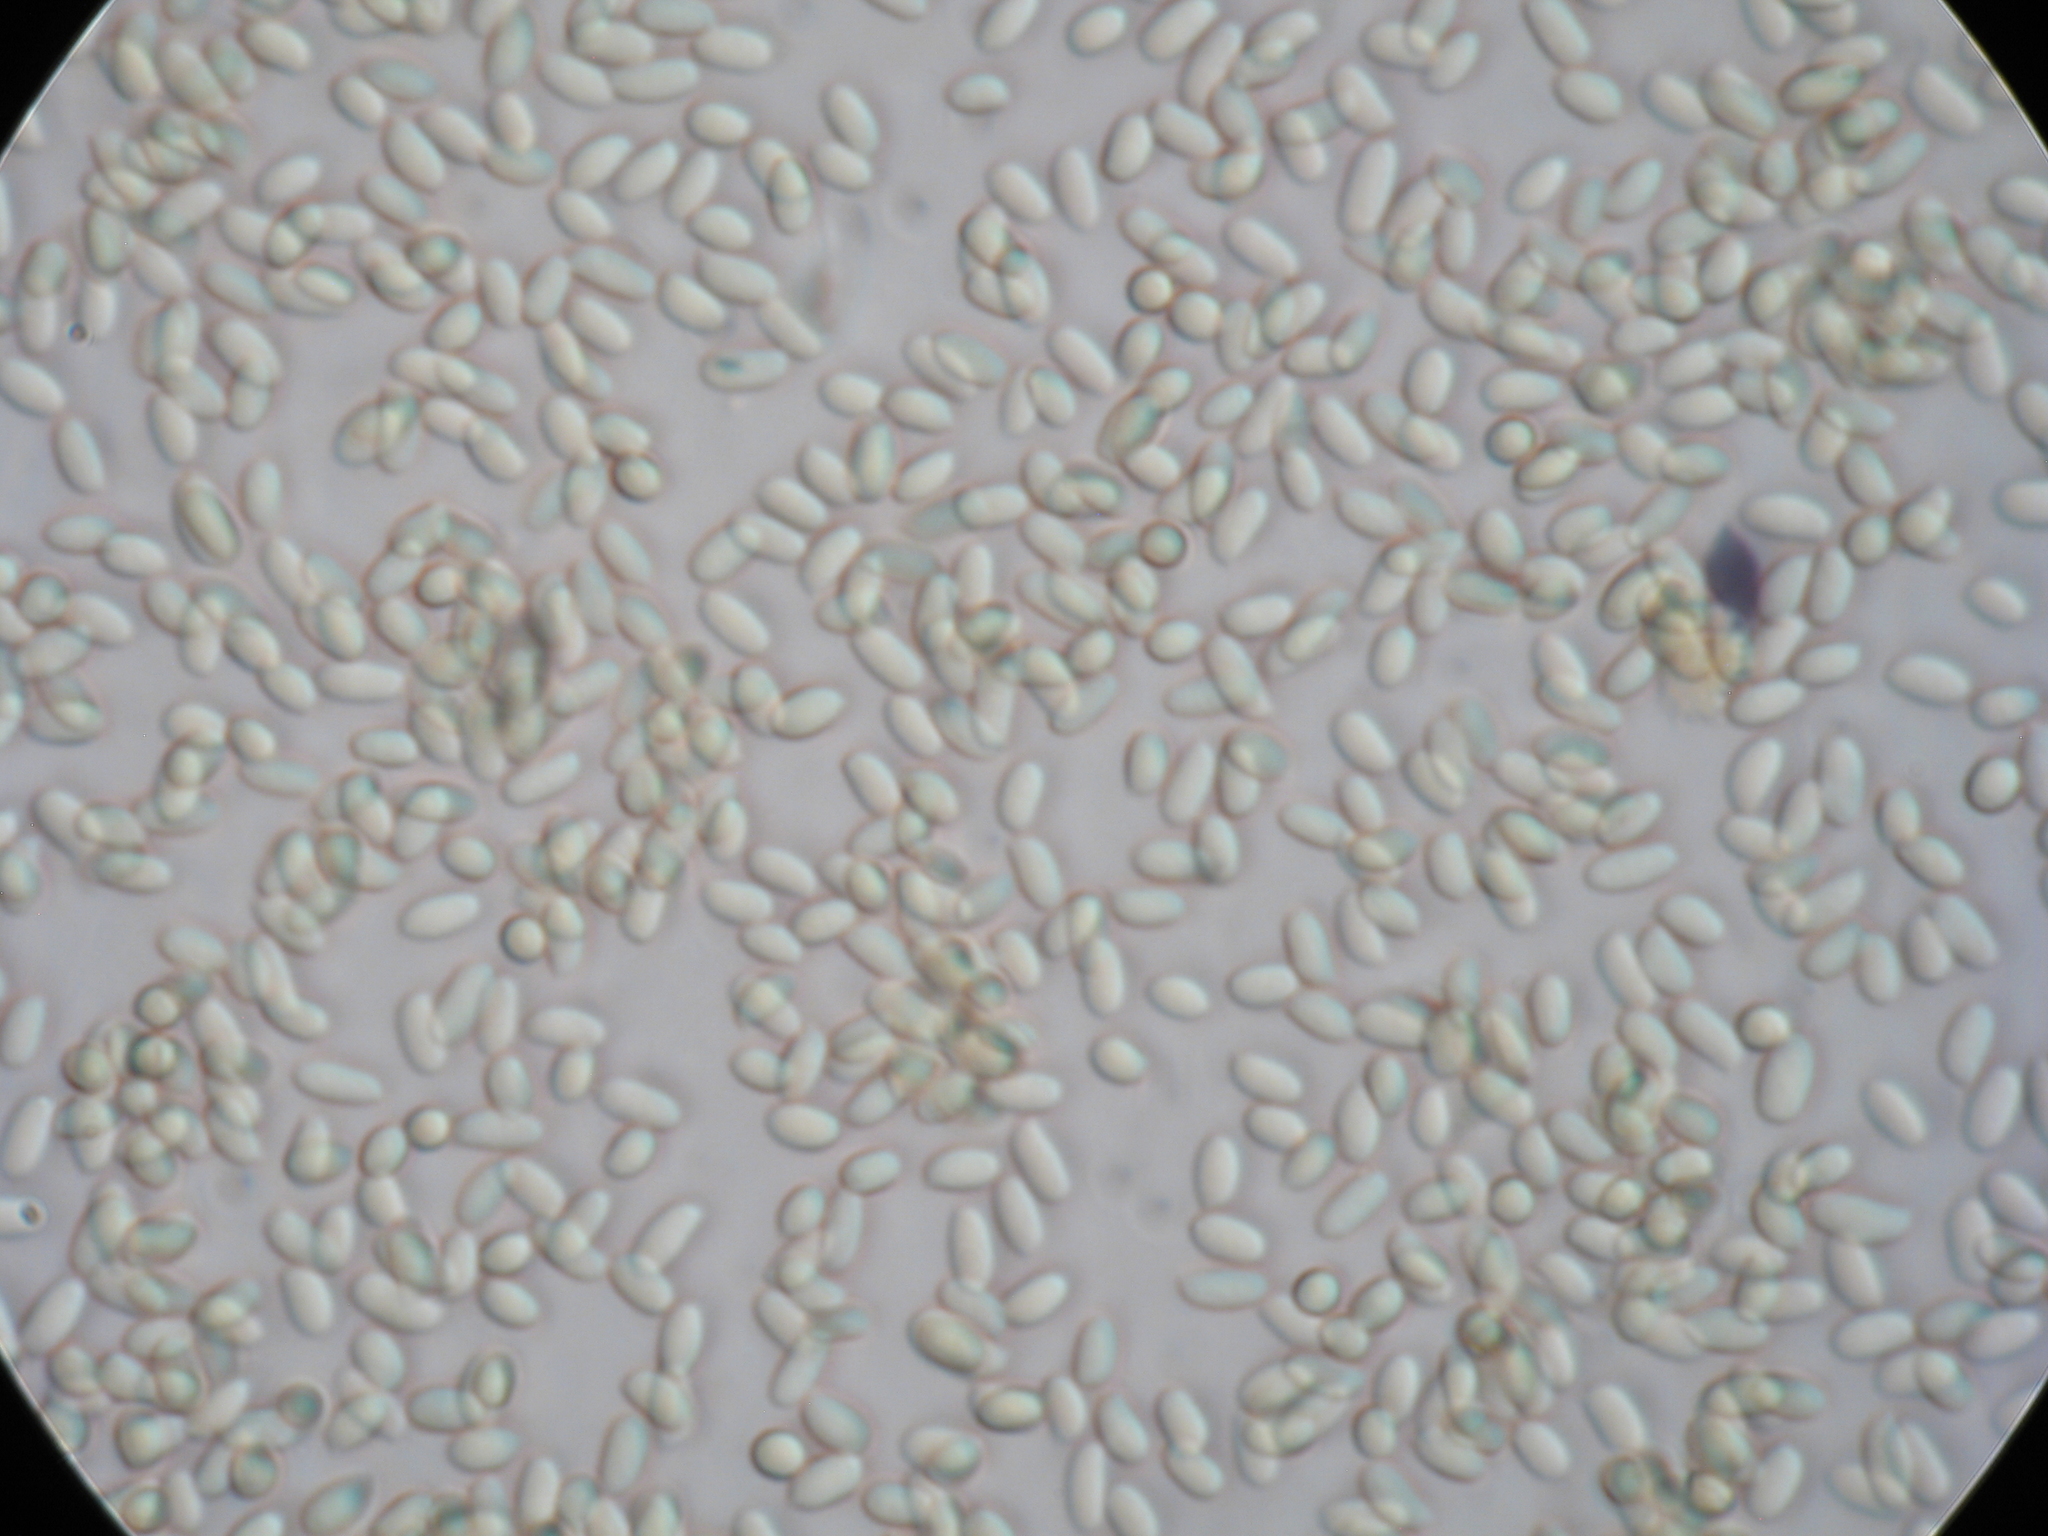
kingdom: Fungi
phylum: Basidiomycota
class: Agaricomycetes
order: Agaricales
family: Physalacriaceae
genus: Flammulina
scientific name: Flammulina velutipes
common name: Velvet shank
